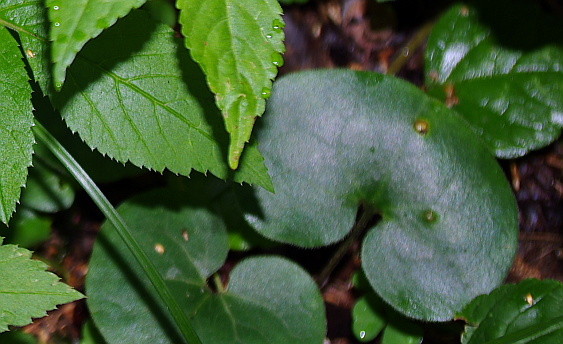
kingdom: Plantae
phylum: Tracheophyta
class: Magnoliopsida
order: Piperales
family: Aristolochiaceae
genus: Asarum
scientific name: Asarum europaeum
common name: Asarabacca
